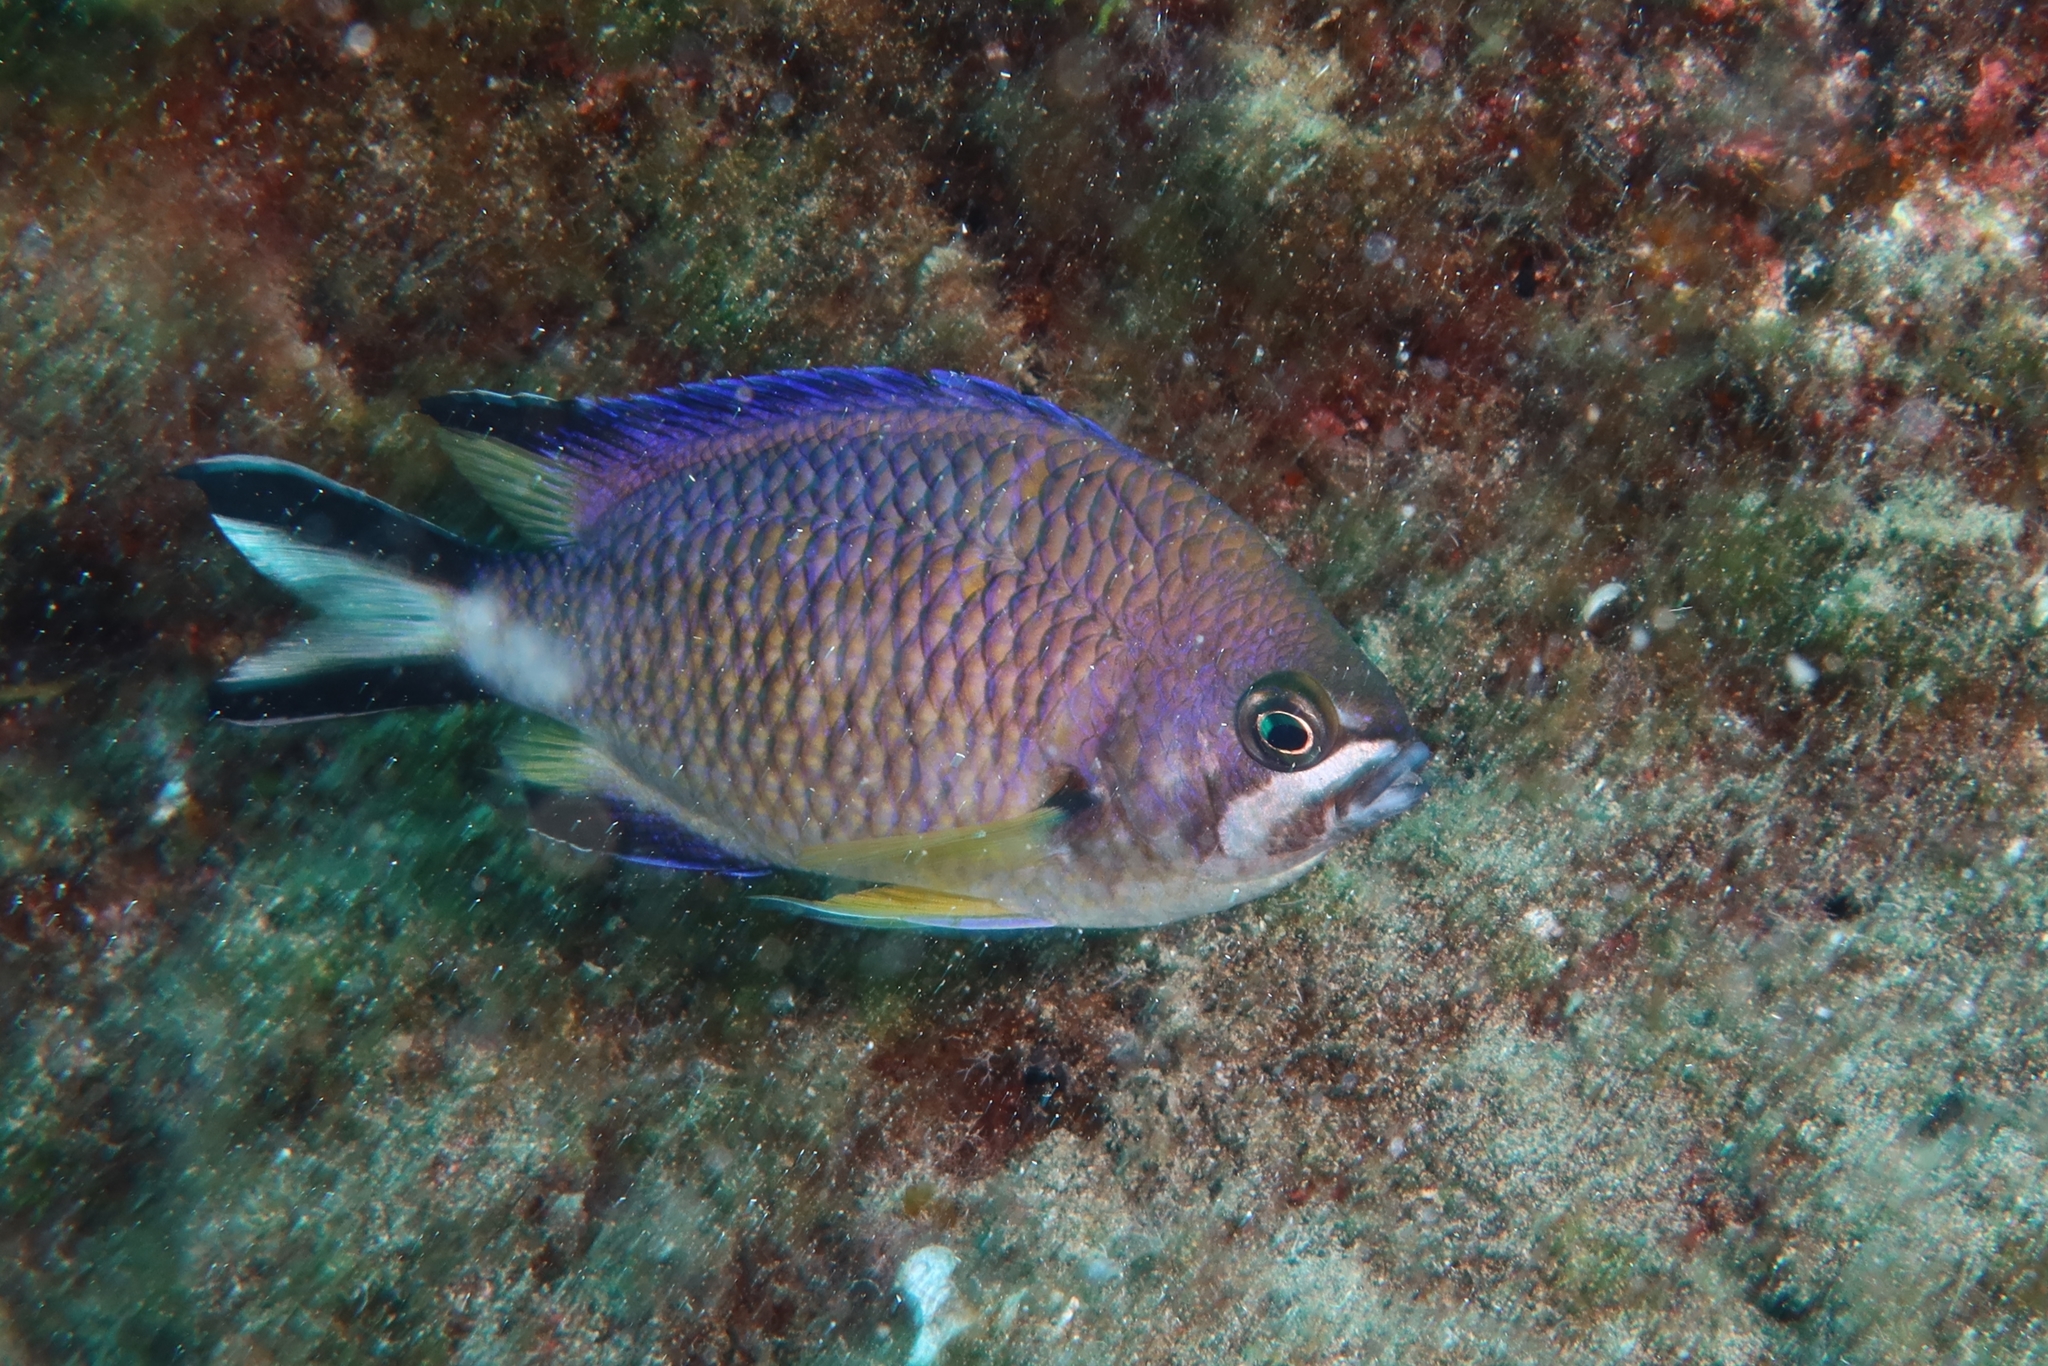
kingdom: Animalia
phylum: Chordata
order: Perciformes
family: Pomacentridae
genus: Chromis
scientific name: Chromis limbata
